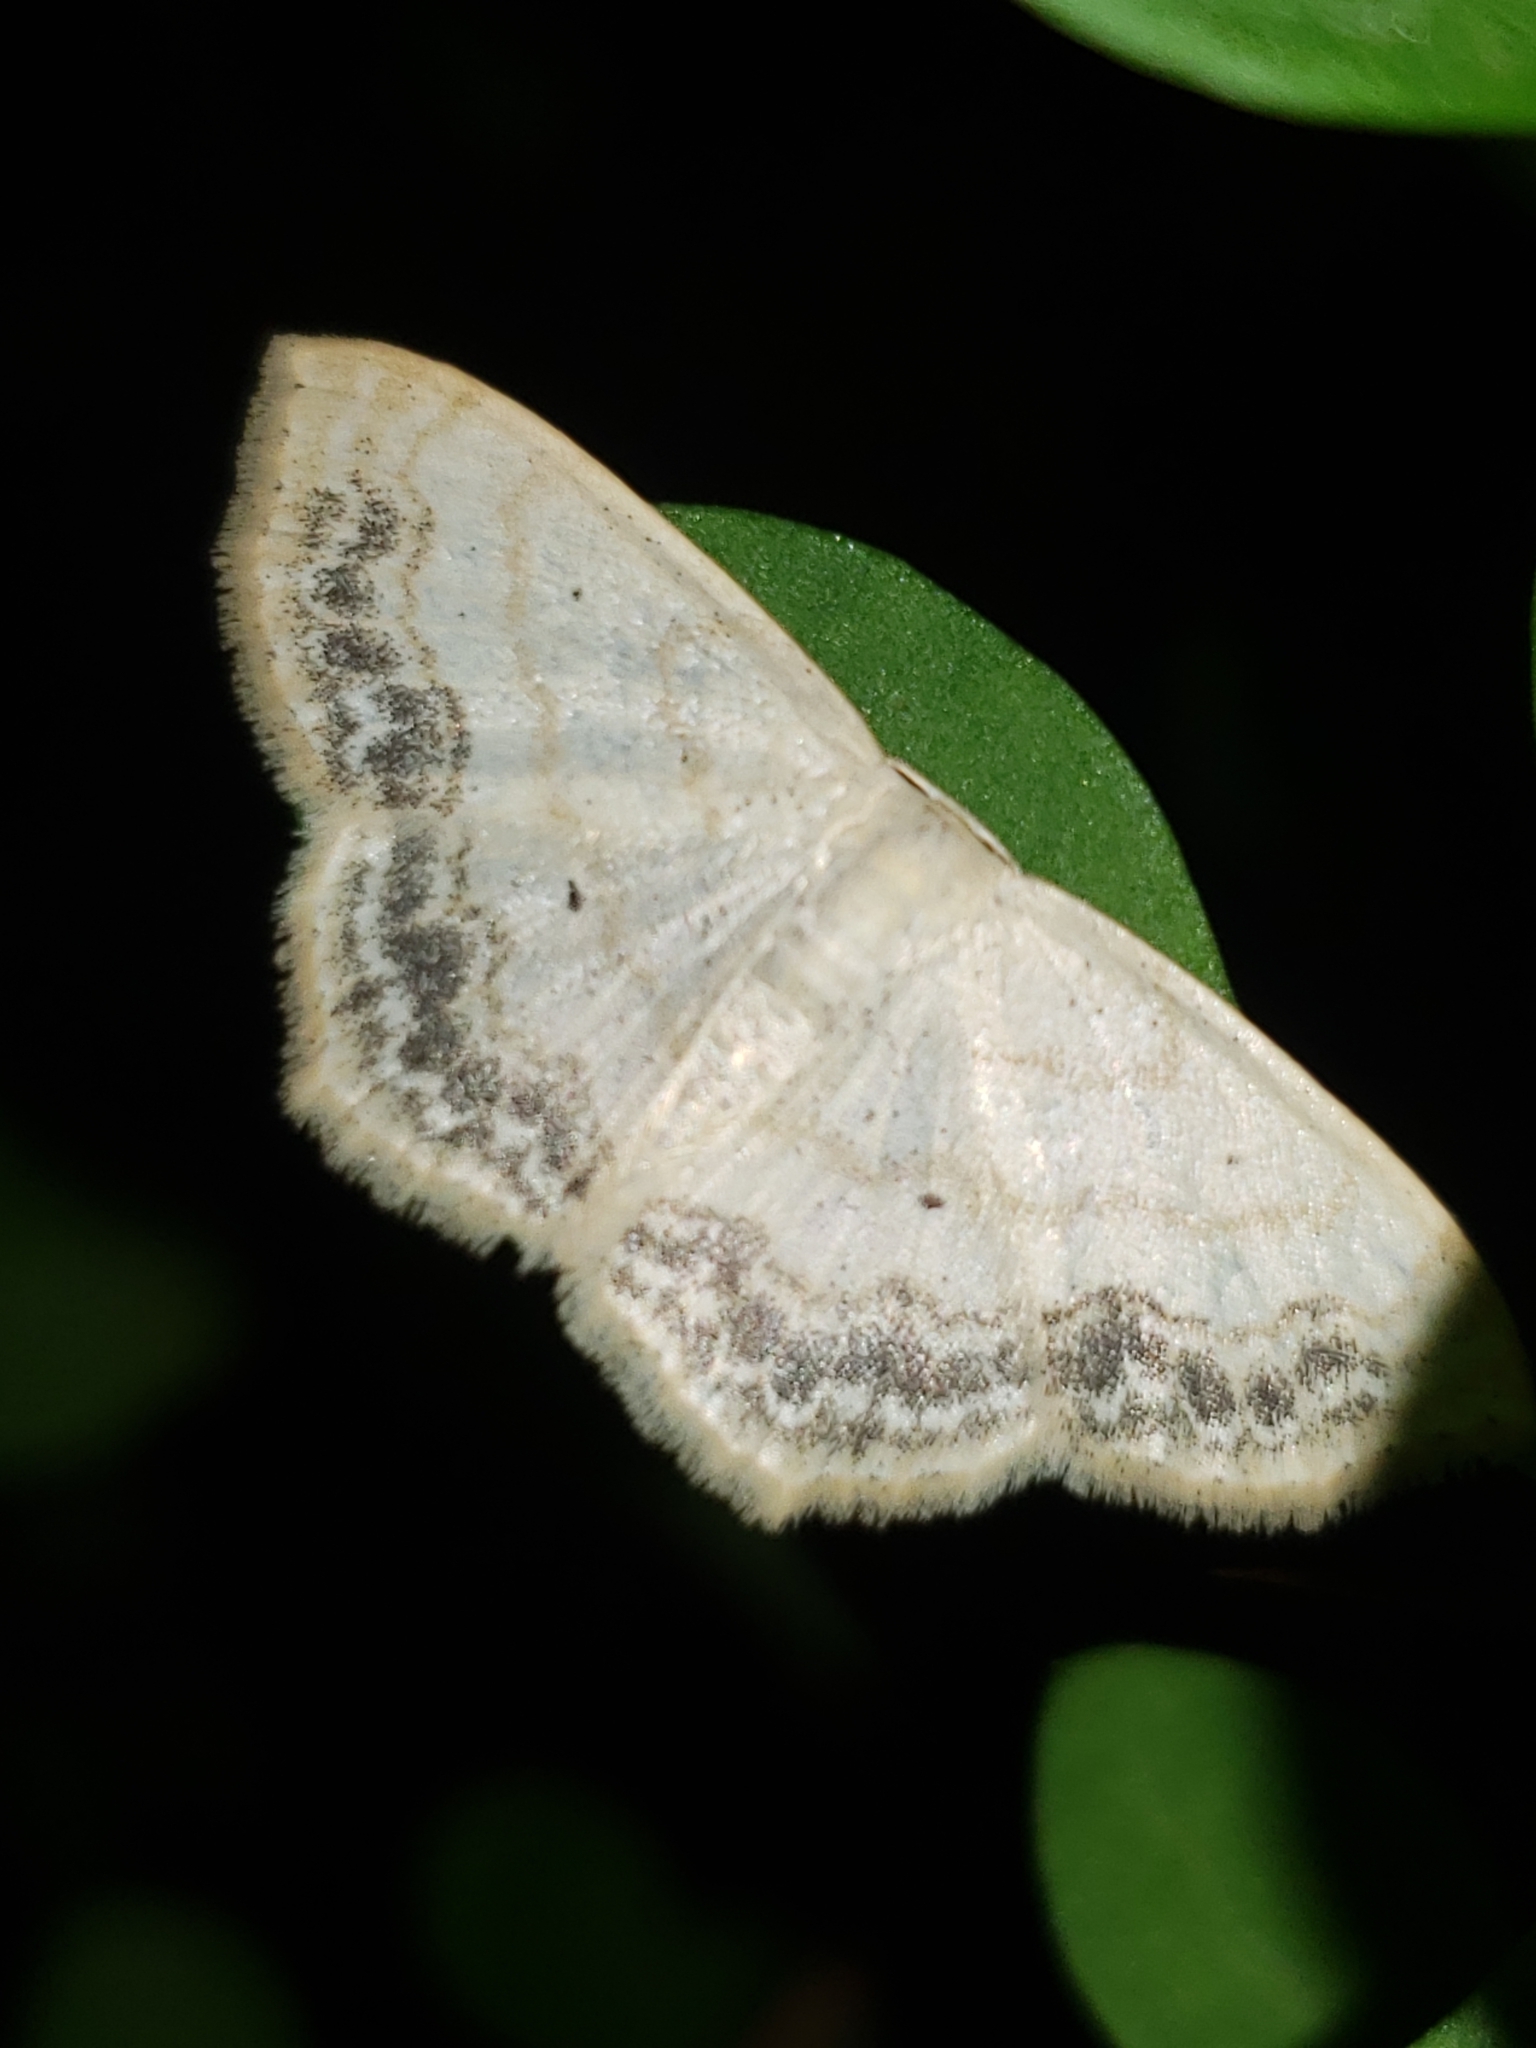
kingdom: Animalia
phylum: Arthropoda
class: Insecta
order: Lepidoptera
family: Geometridae
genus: Scopula
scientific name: Scopula limboundata
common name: Large lace border
